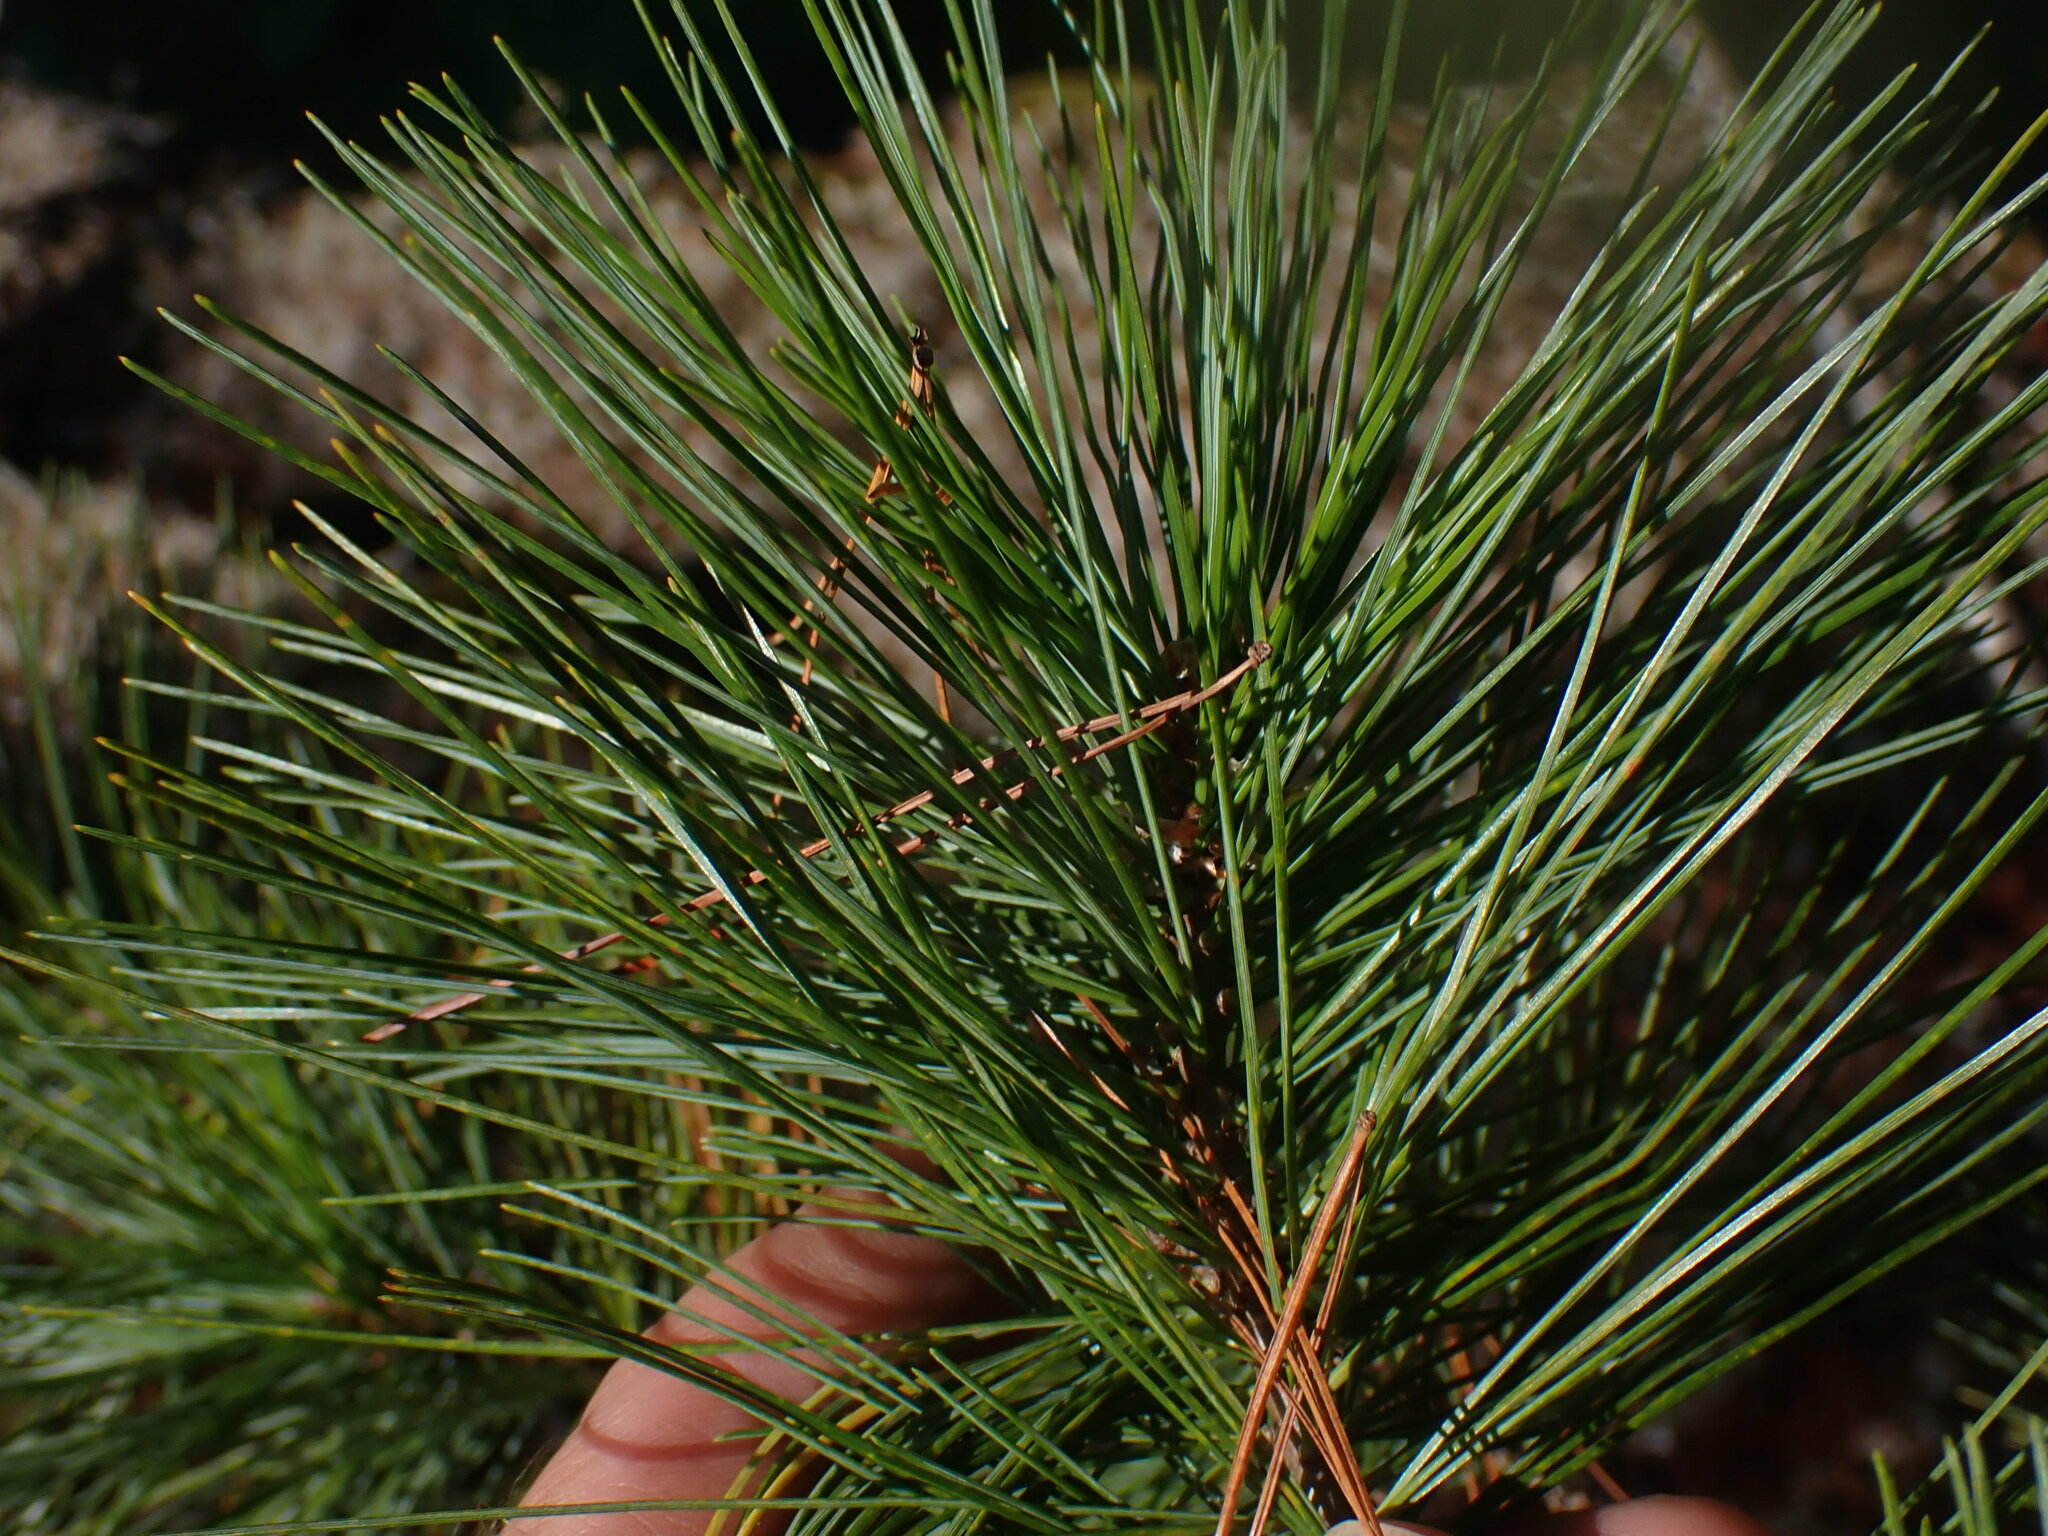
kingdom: Plantae
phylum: Tracheophyta
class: Pinopsida
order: Pinales
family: Pinaceae
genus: Pinus
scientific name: Pinus monticola
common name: Western white pine
